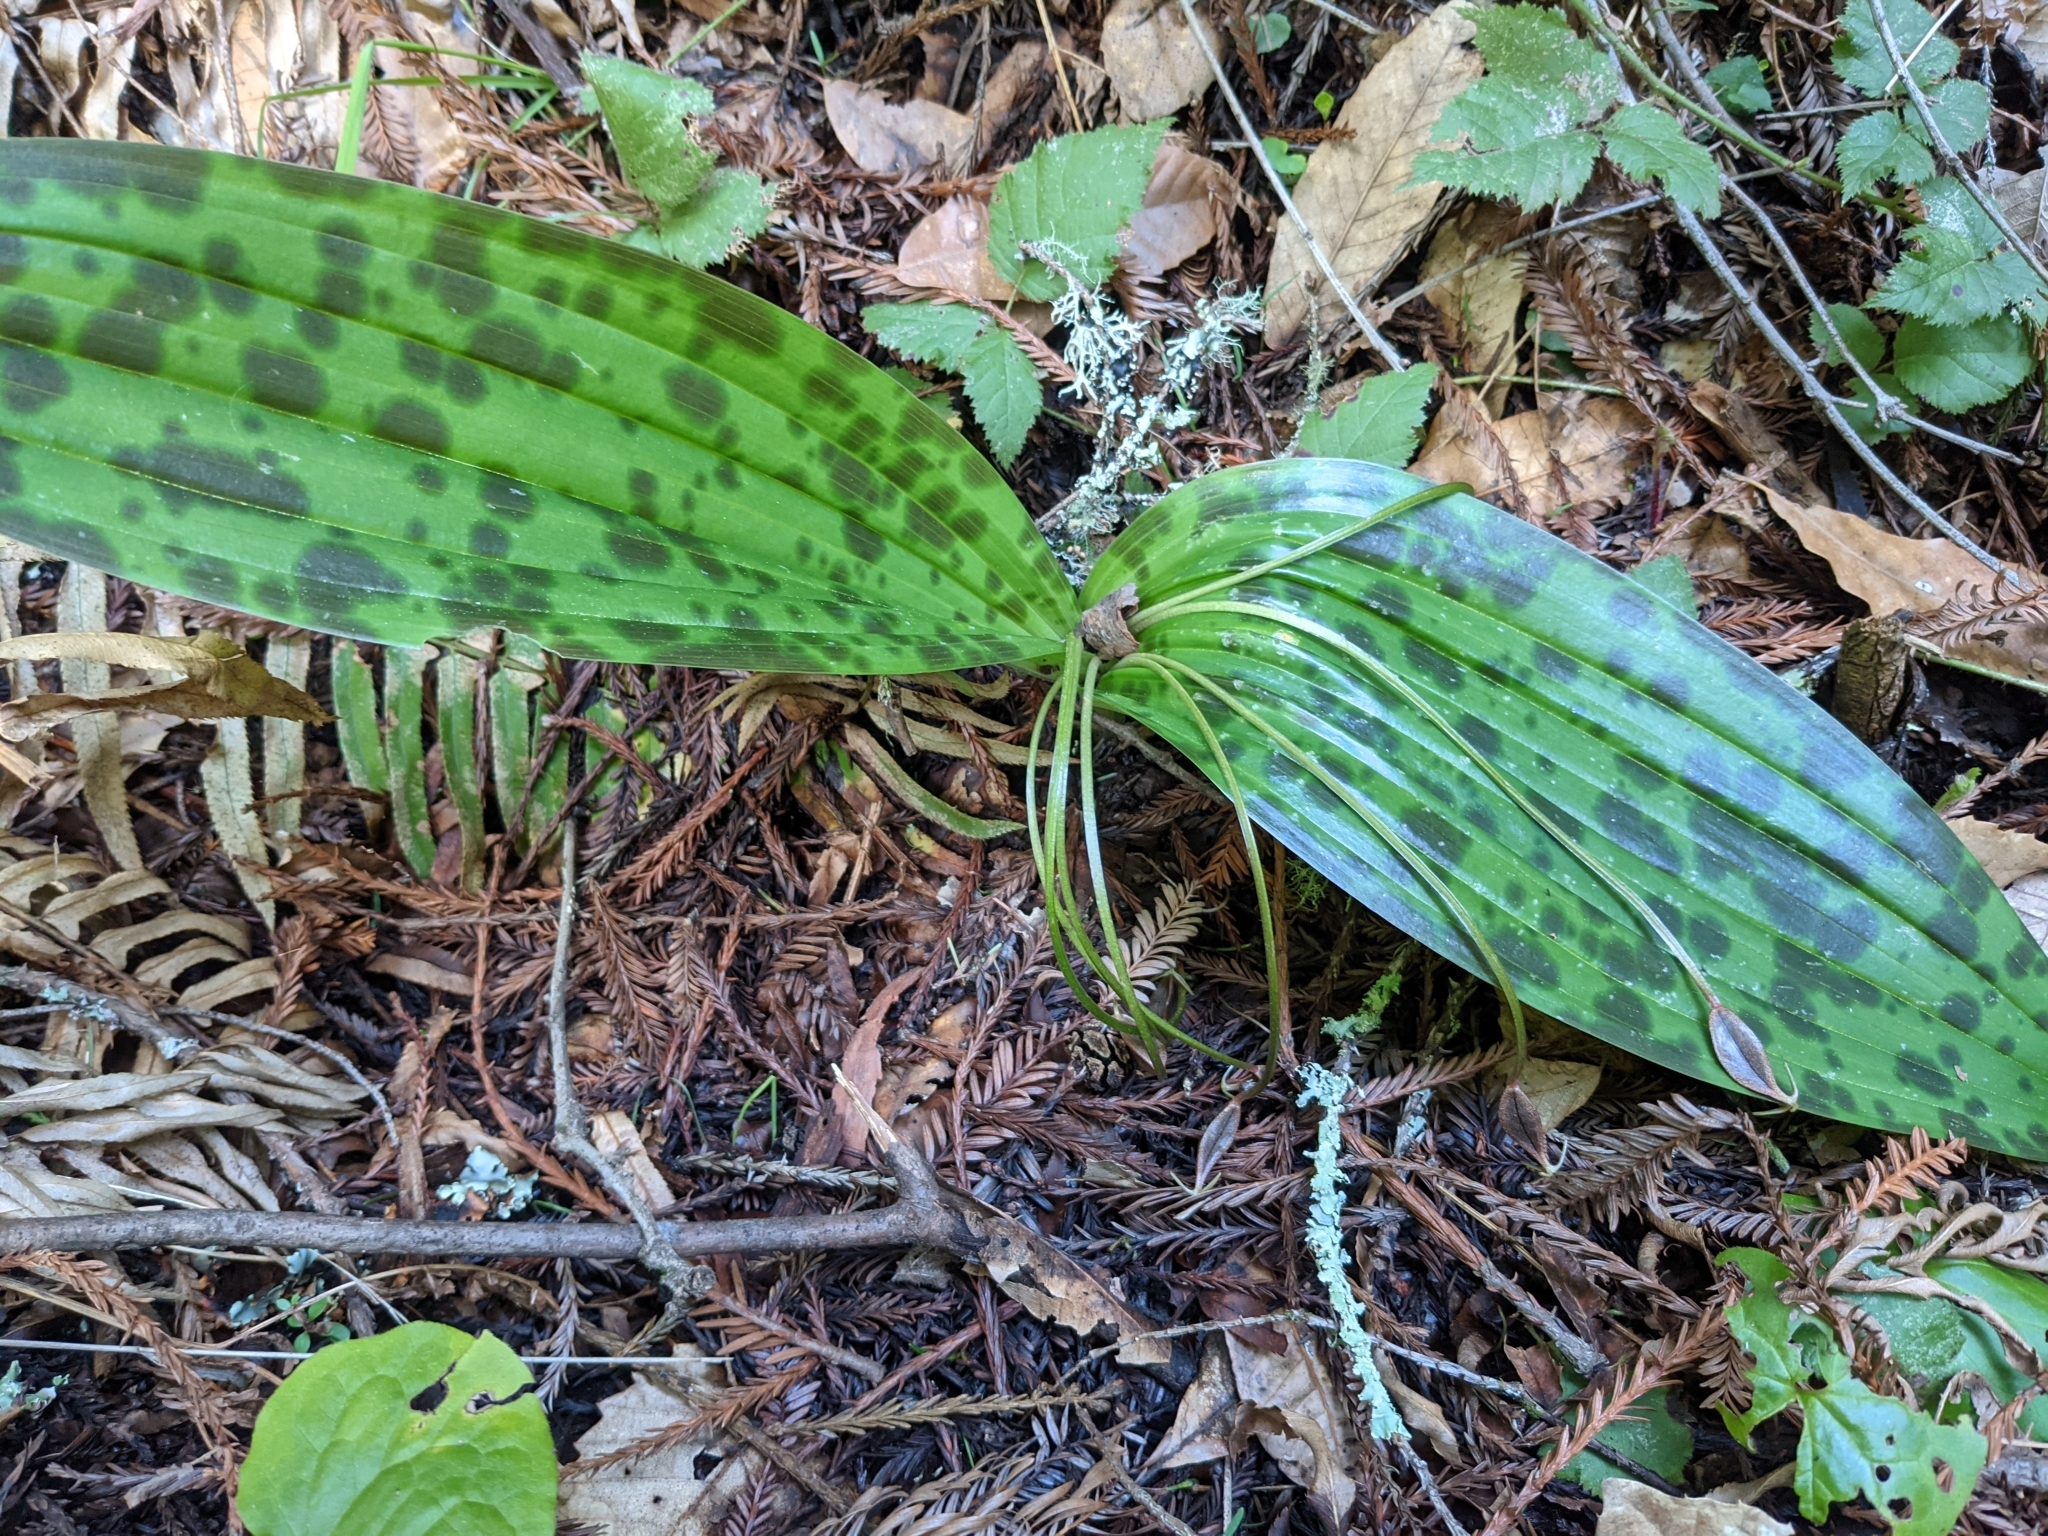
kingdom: Plantae
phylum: Tracheophyta
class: Liliopsida
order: Liliales
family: Liliaceae
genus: Scoliopus
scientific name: Scoliopus bigelovii
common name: Foetid adder's-tongue
